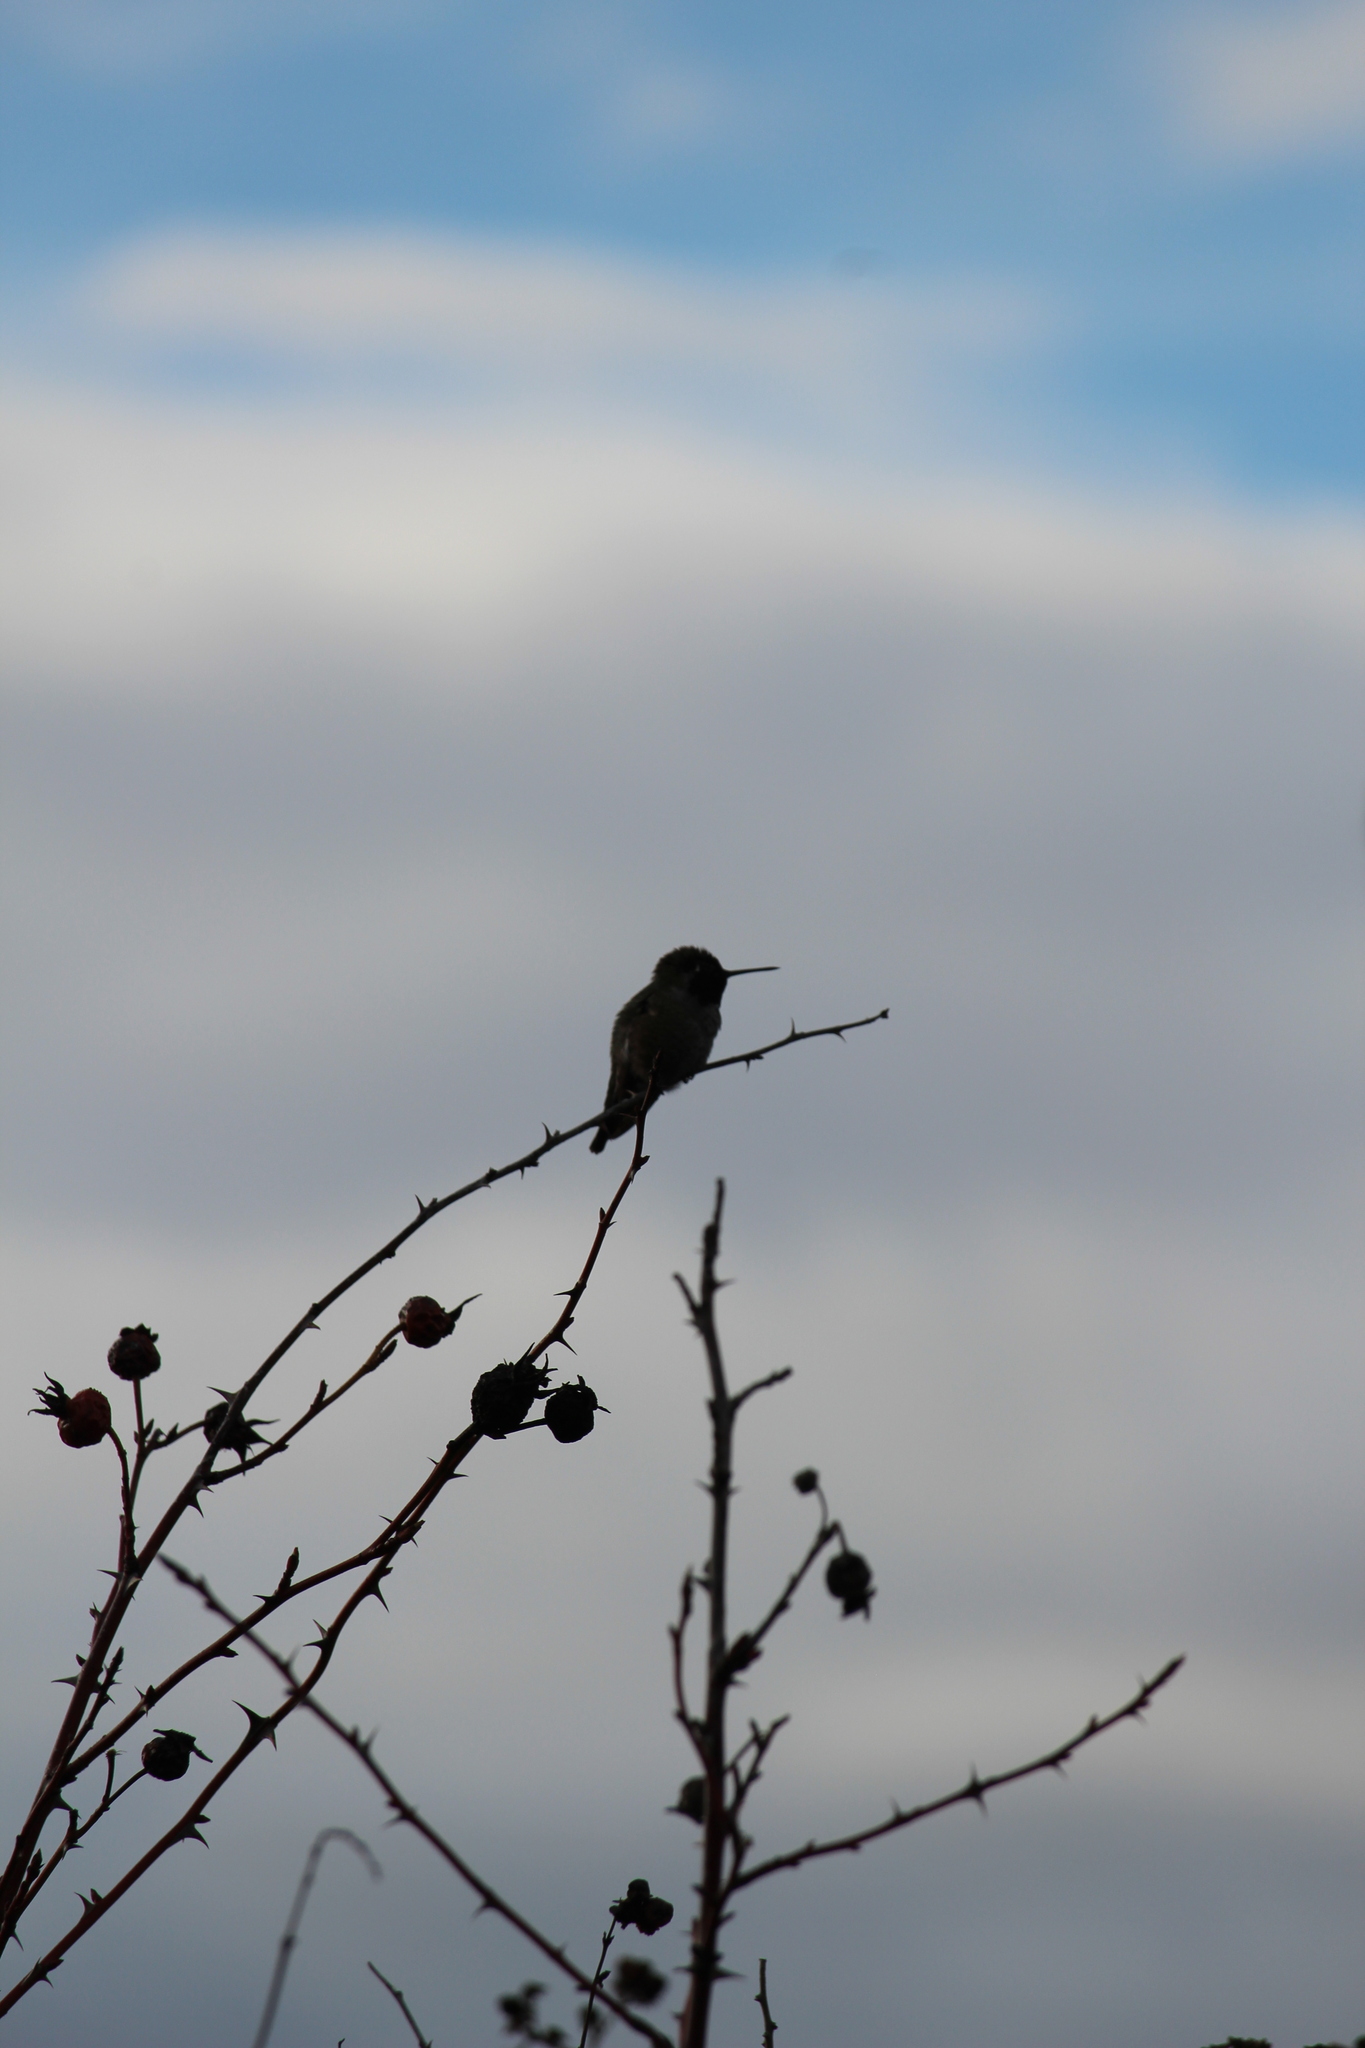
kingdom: Animalia
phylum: Chordata
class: Aves
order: Apodiformes
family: Trochilidae
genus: Calypte
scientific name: Calypte anna
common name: Anna's hummingbird
